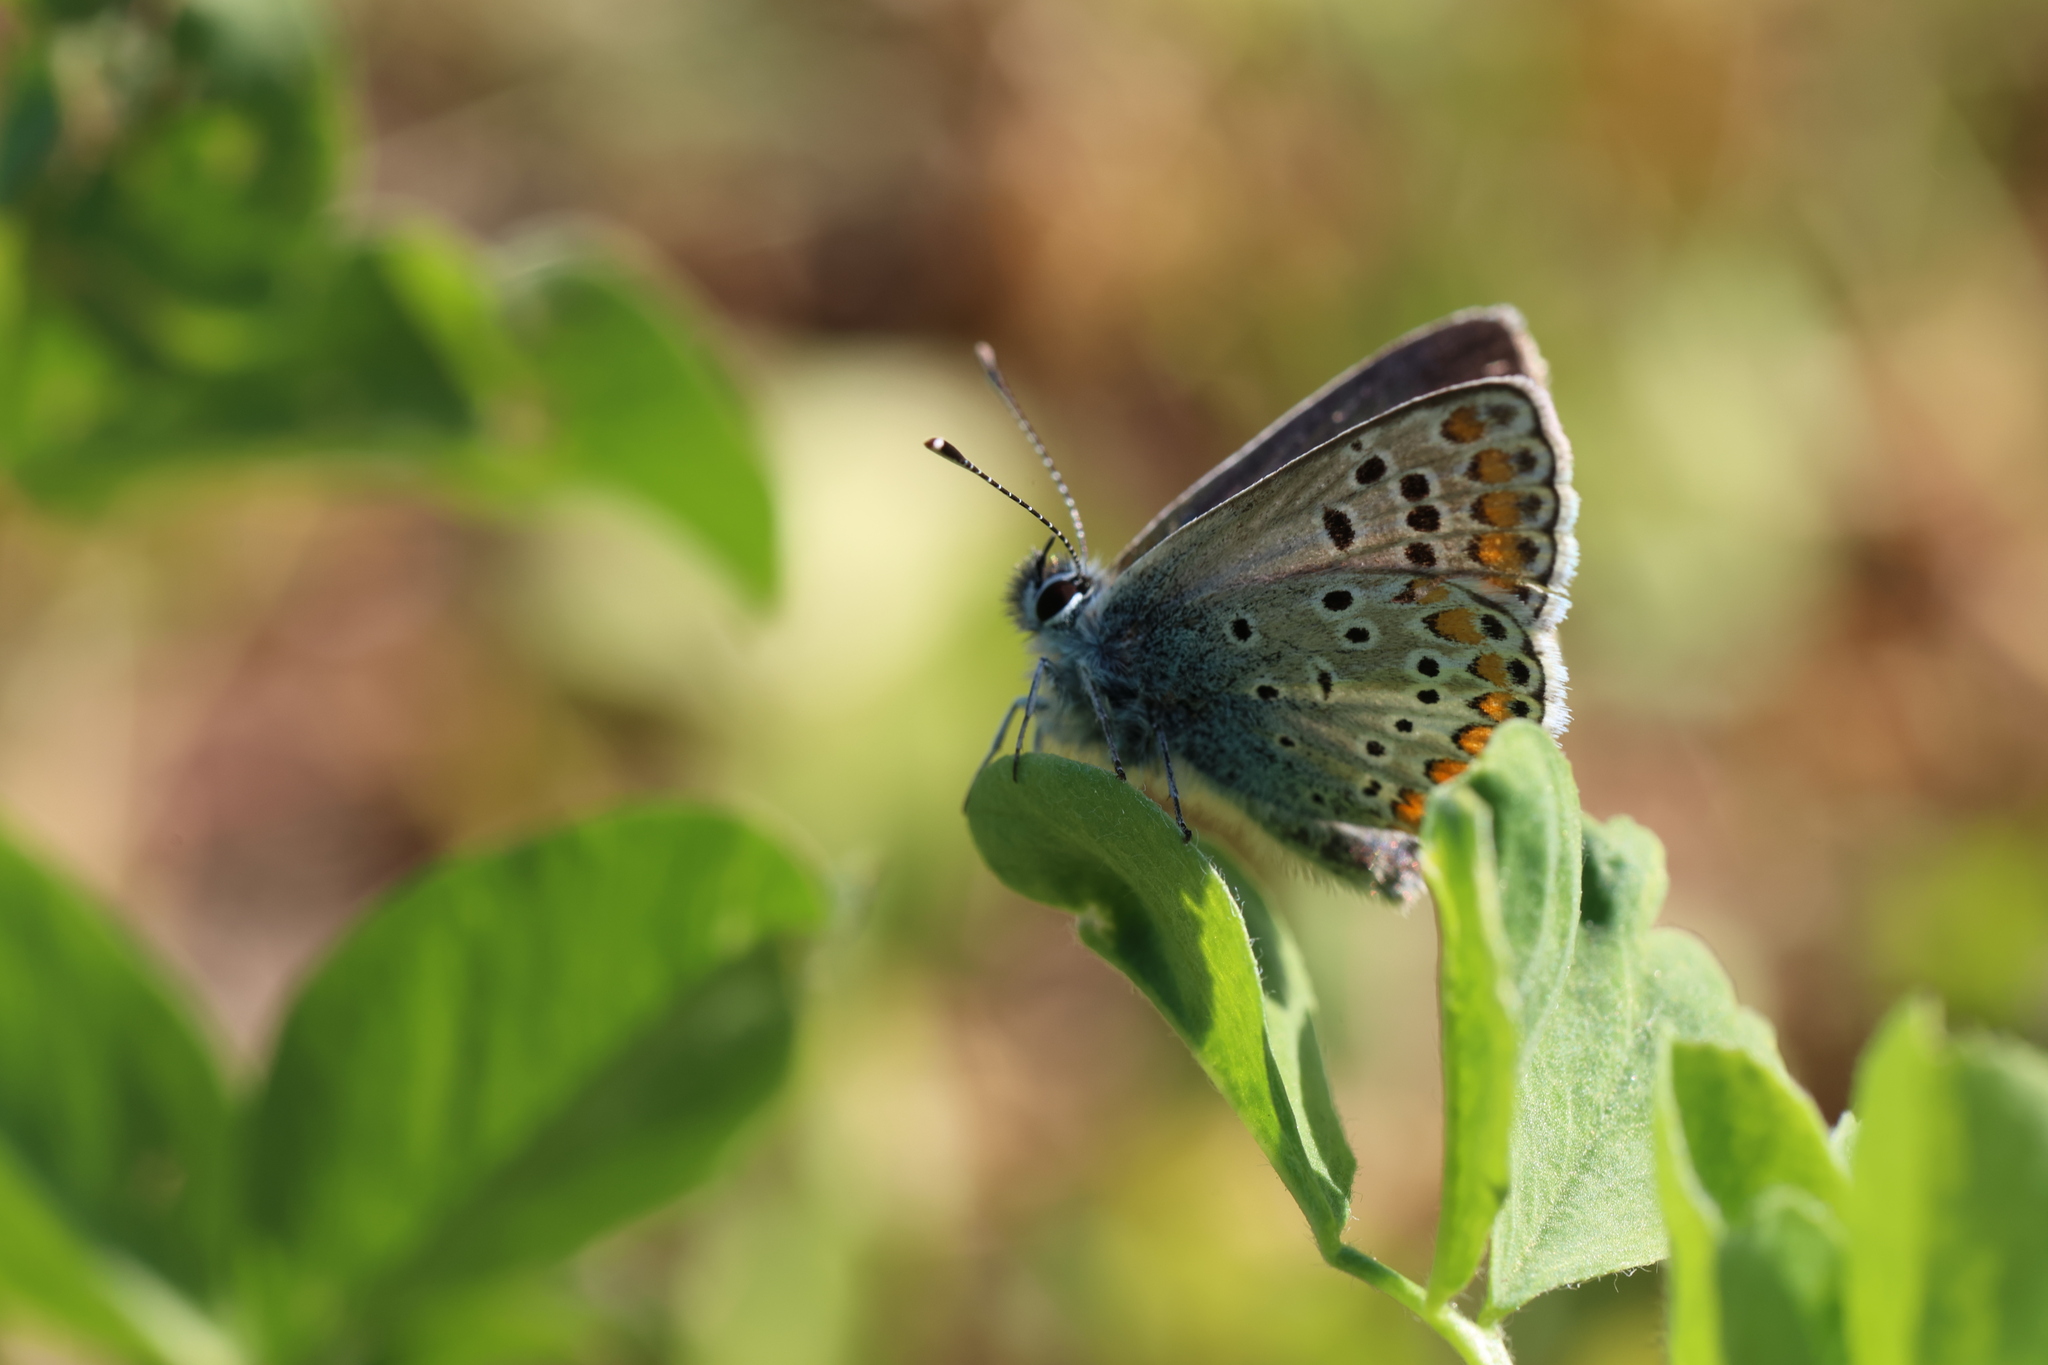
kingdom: Animalia
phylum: Arthropoda
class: Insecta
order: Lepidoptera
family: Lycaenidae
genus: Aricia
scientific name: Aricia agestis
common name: Brown argus
